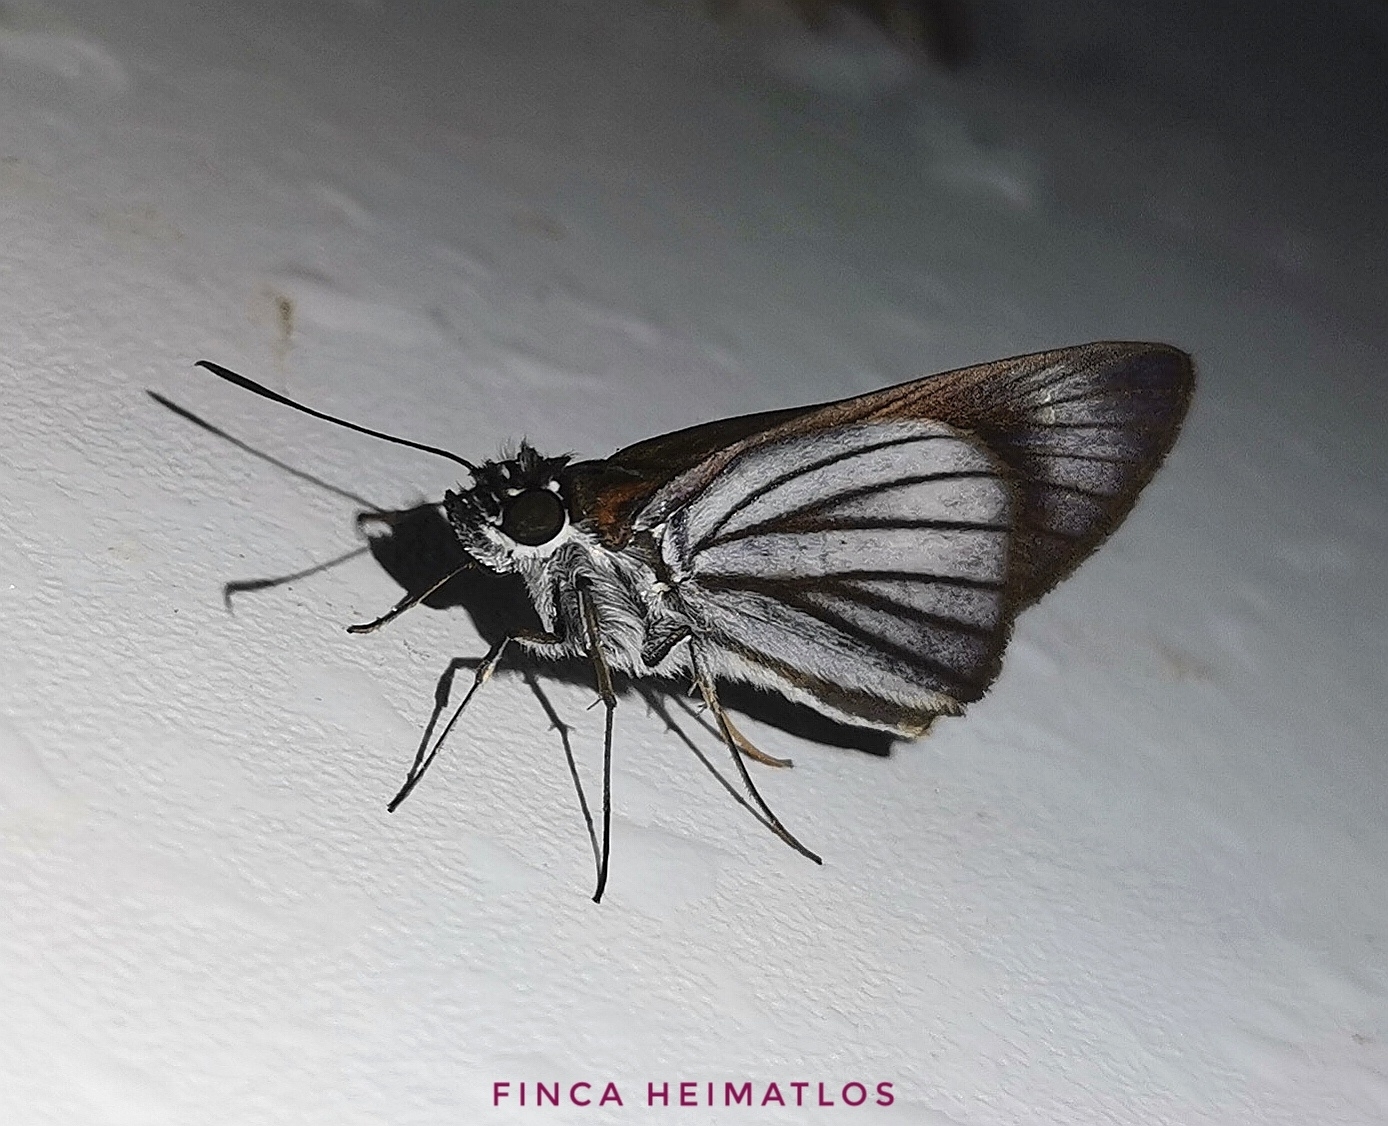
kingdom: Animalia
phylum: Arthropoda
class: Insecta
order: Lepidoptera
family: Hesperiidae
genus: Paracarystus
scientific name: Paracarystus hypargyra
